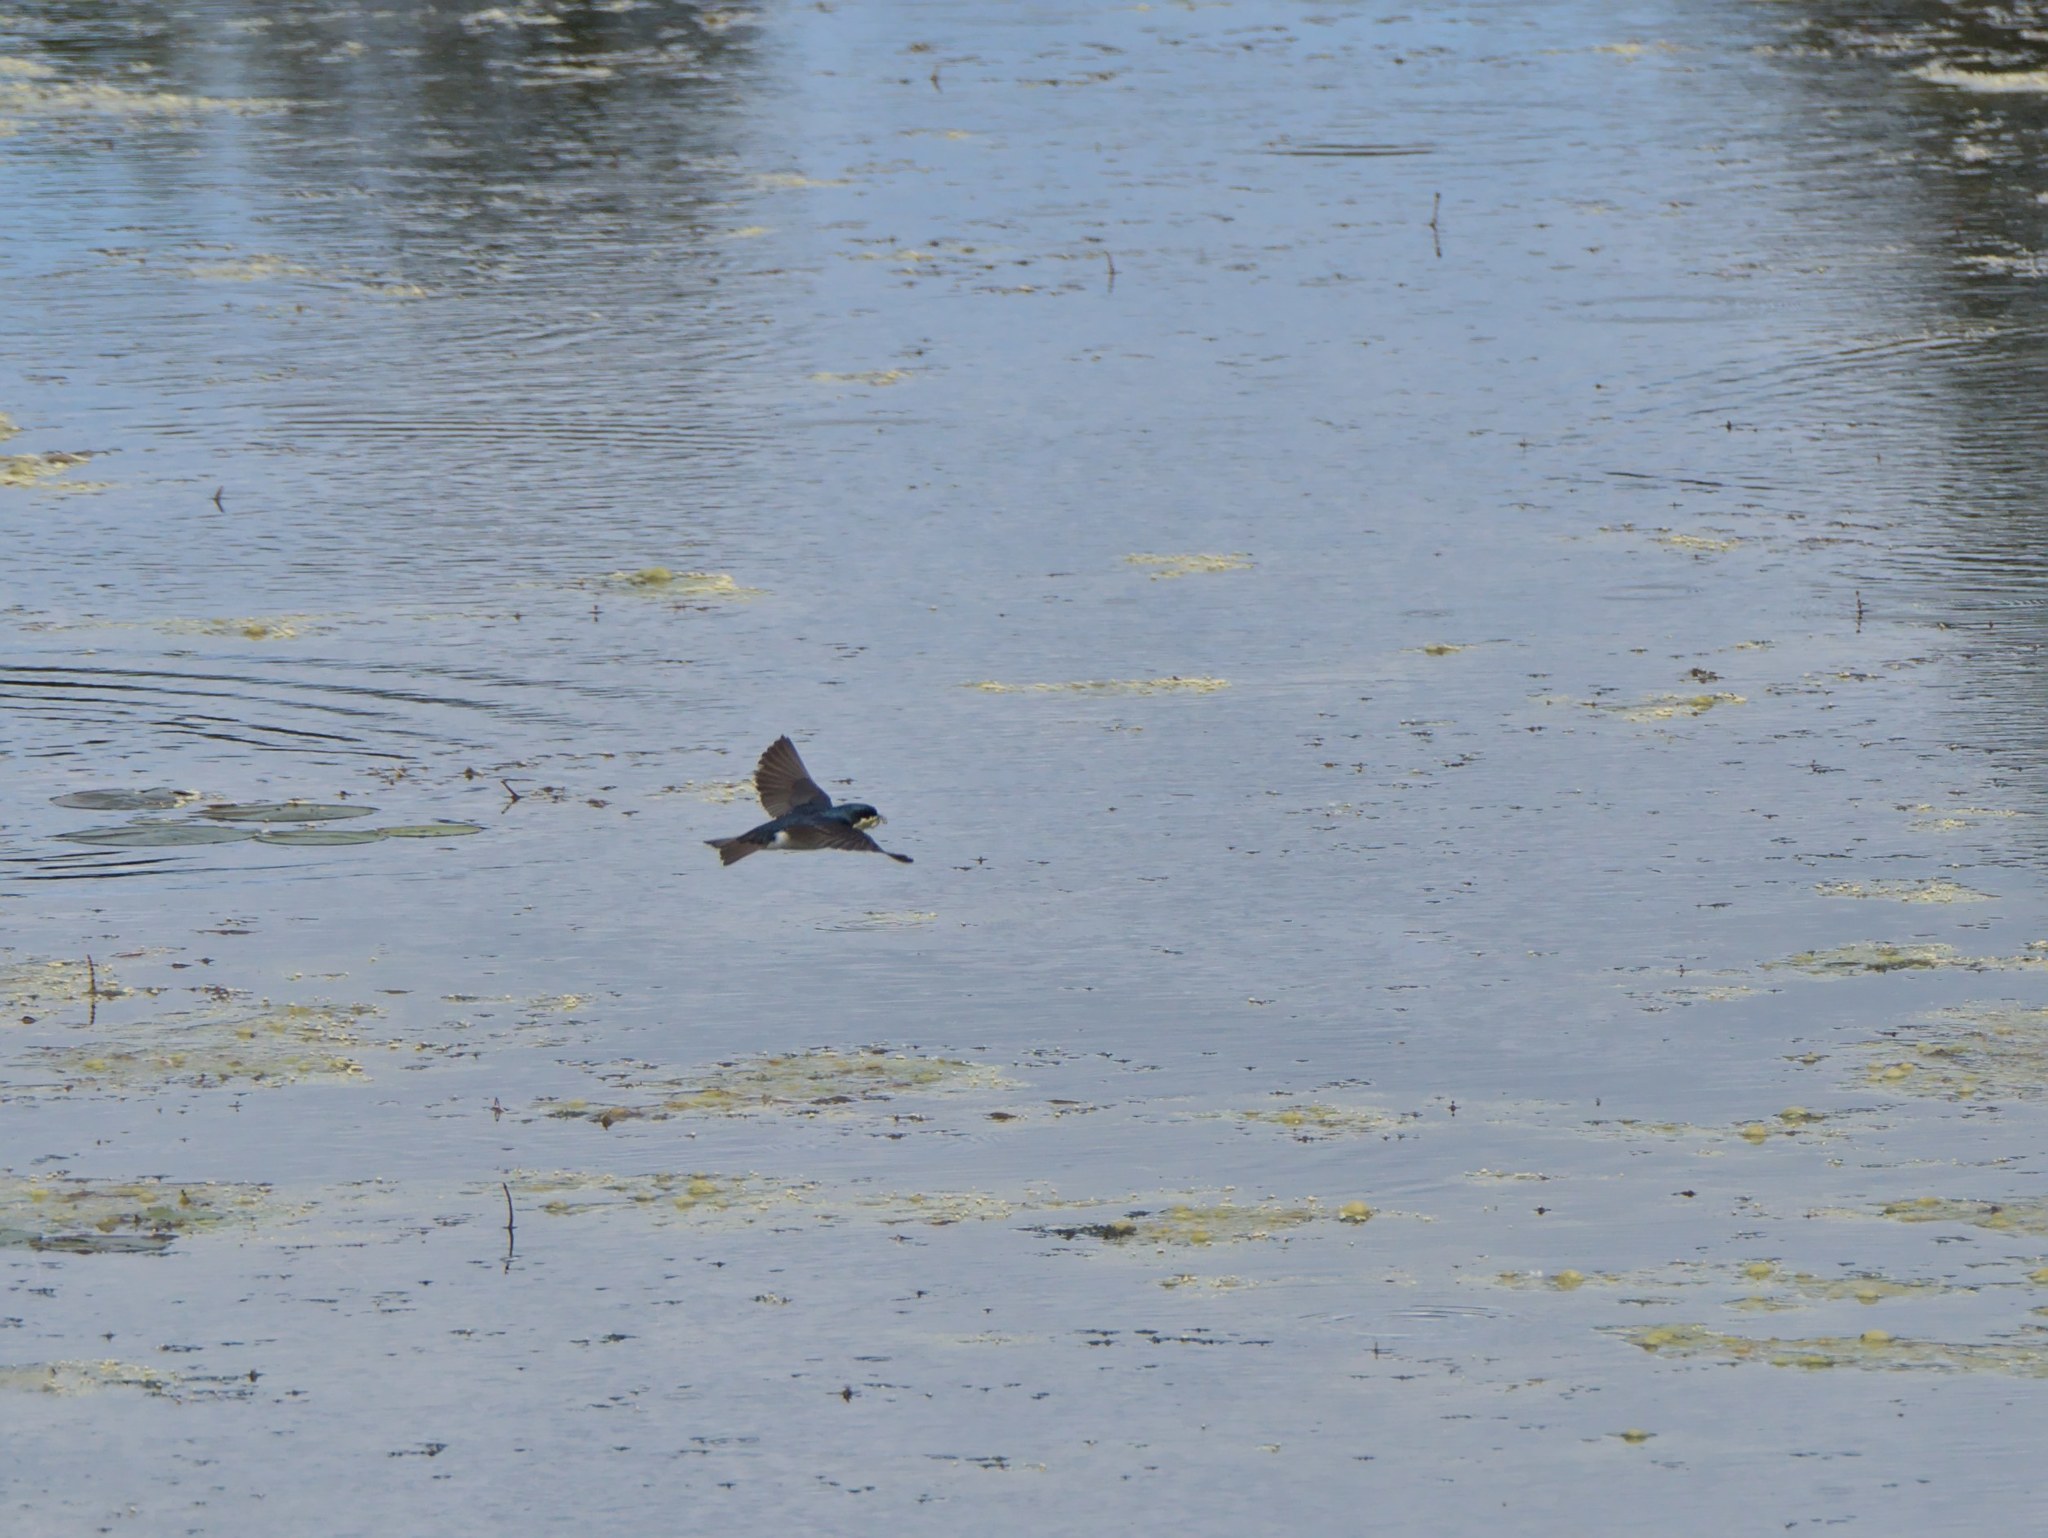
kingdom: Animalia
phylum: Chordata
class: Aves
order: Passeriformes
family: Hirundinidae
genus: Tachycineta
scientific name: Tachycineta bicolor
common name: Tree swallow
